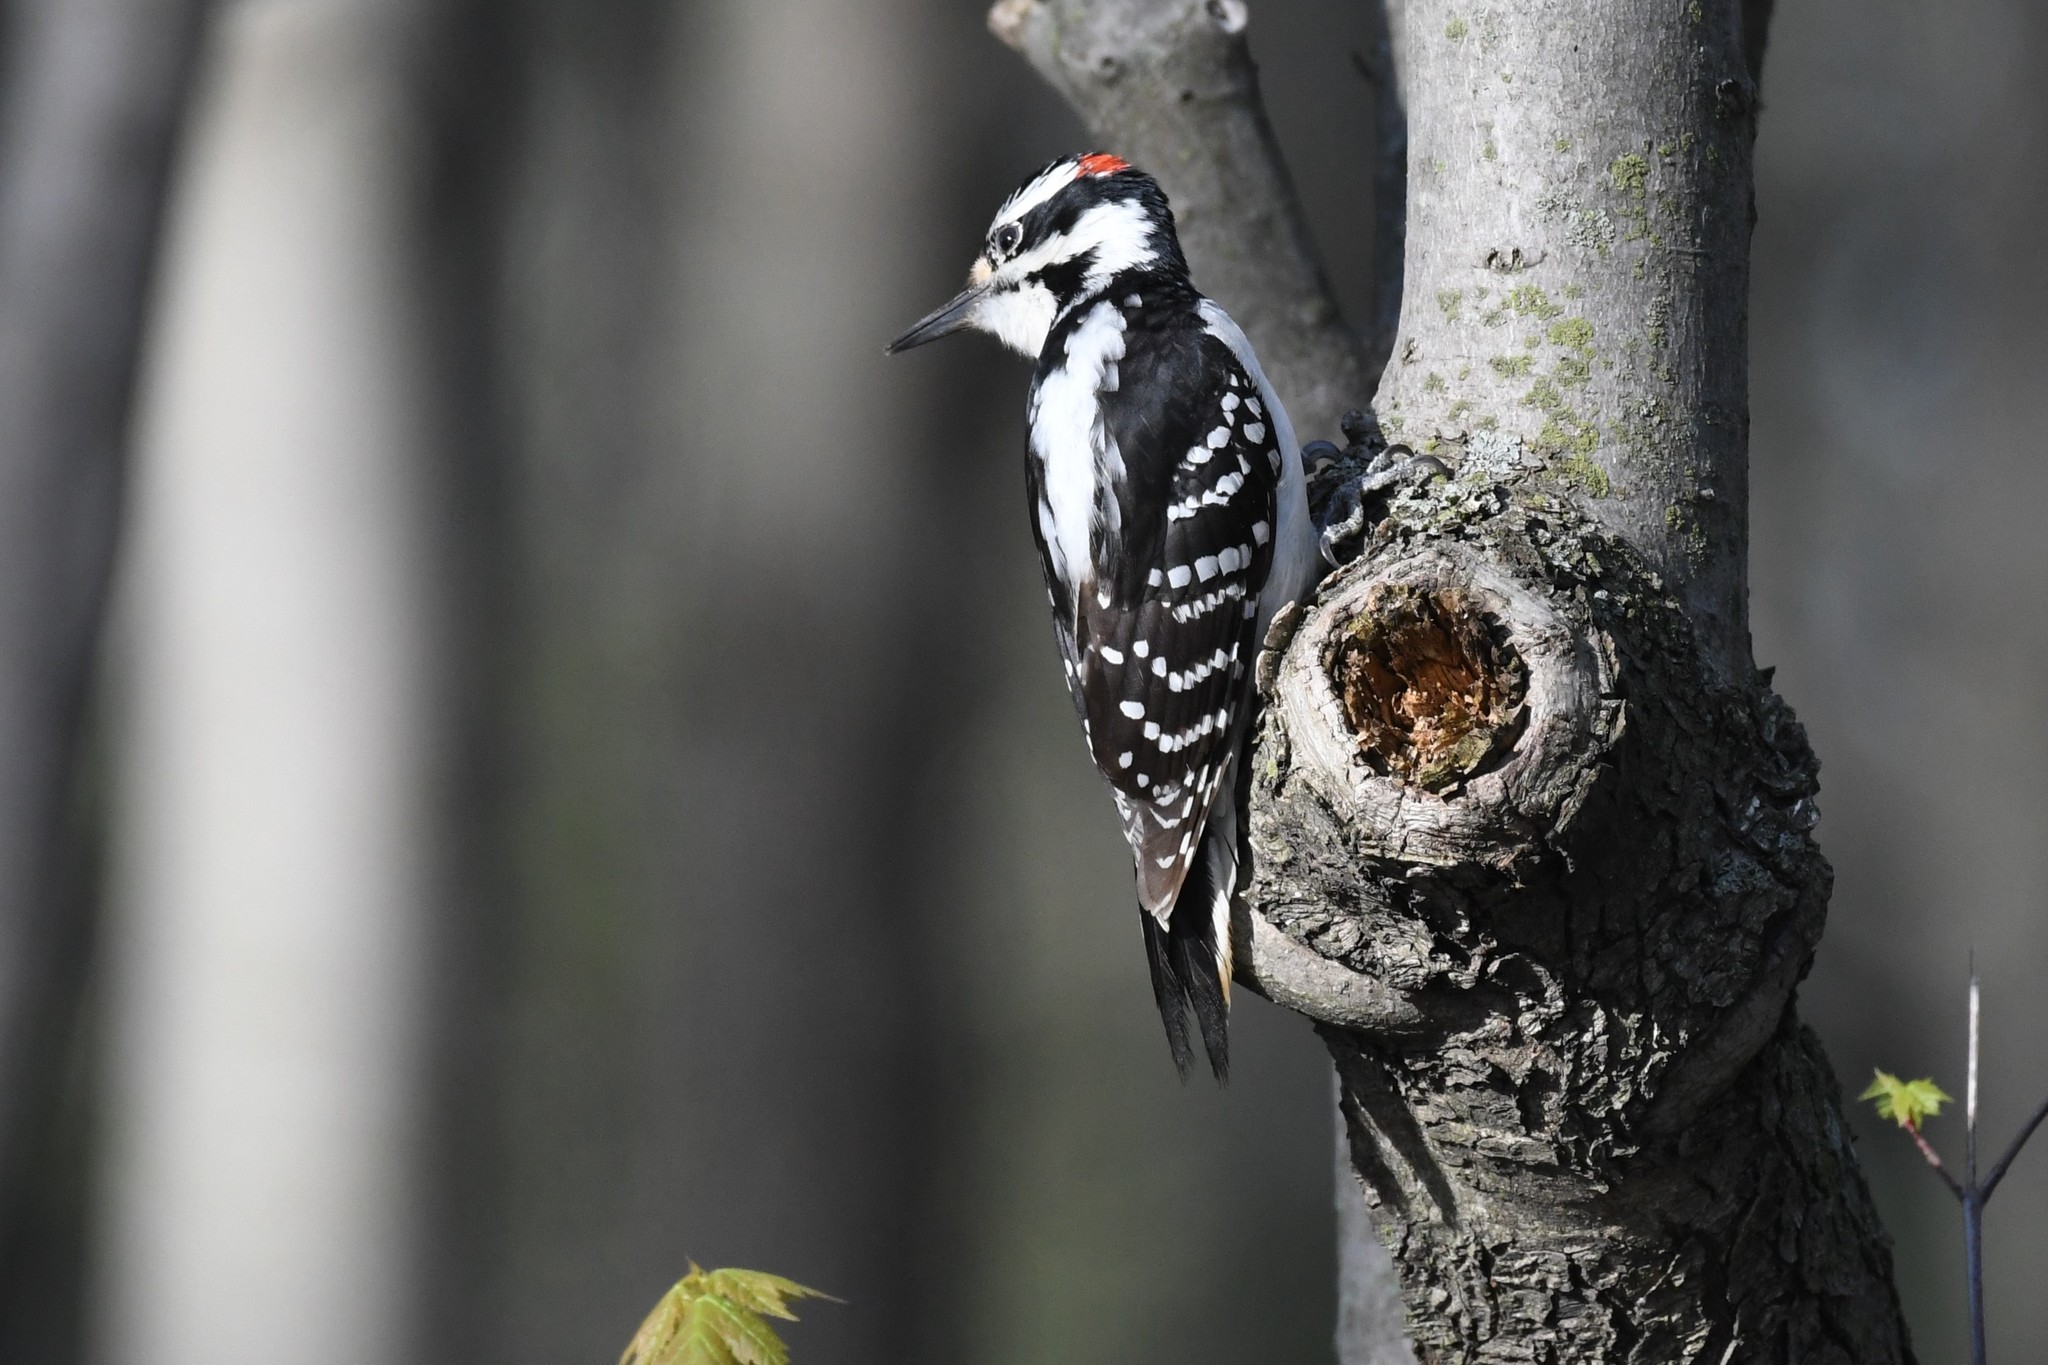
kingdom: Animalia
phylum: Chordata
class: Aves
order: Piciformes
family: Picidae
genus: Leuconotopicus
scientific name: Leuconotopicus villosus
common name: Hairy woodpecker
